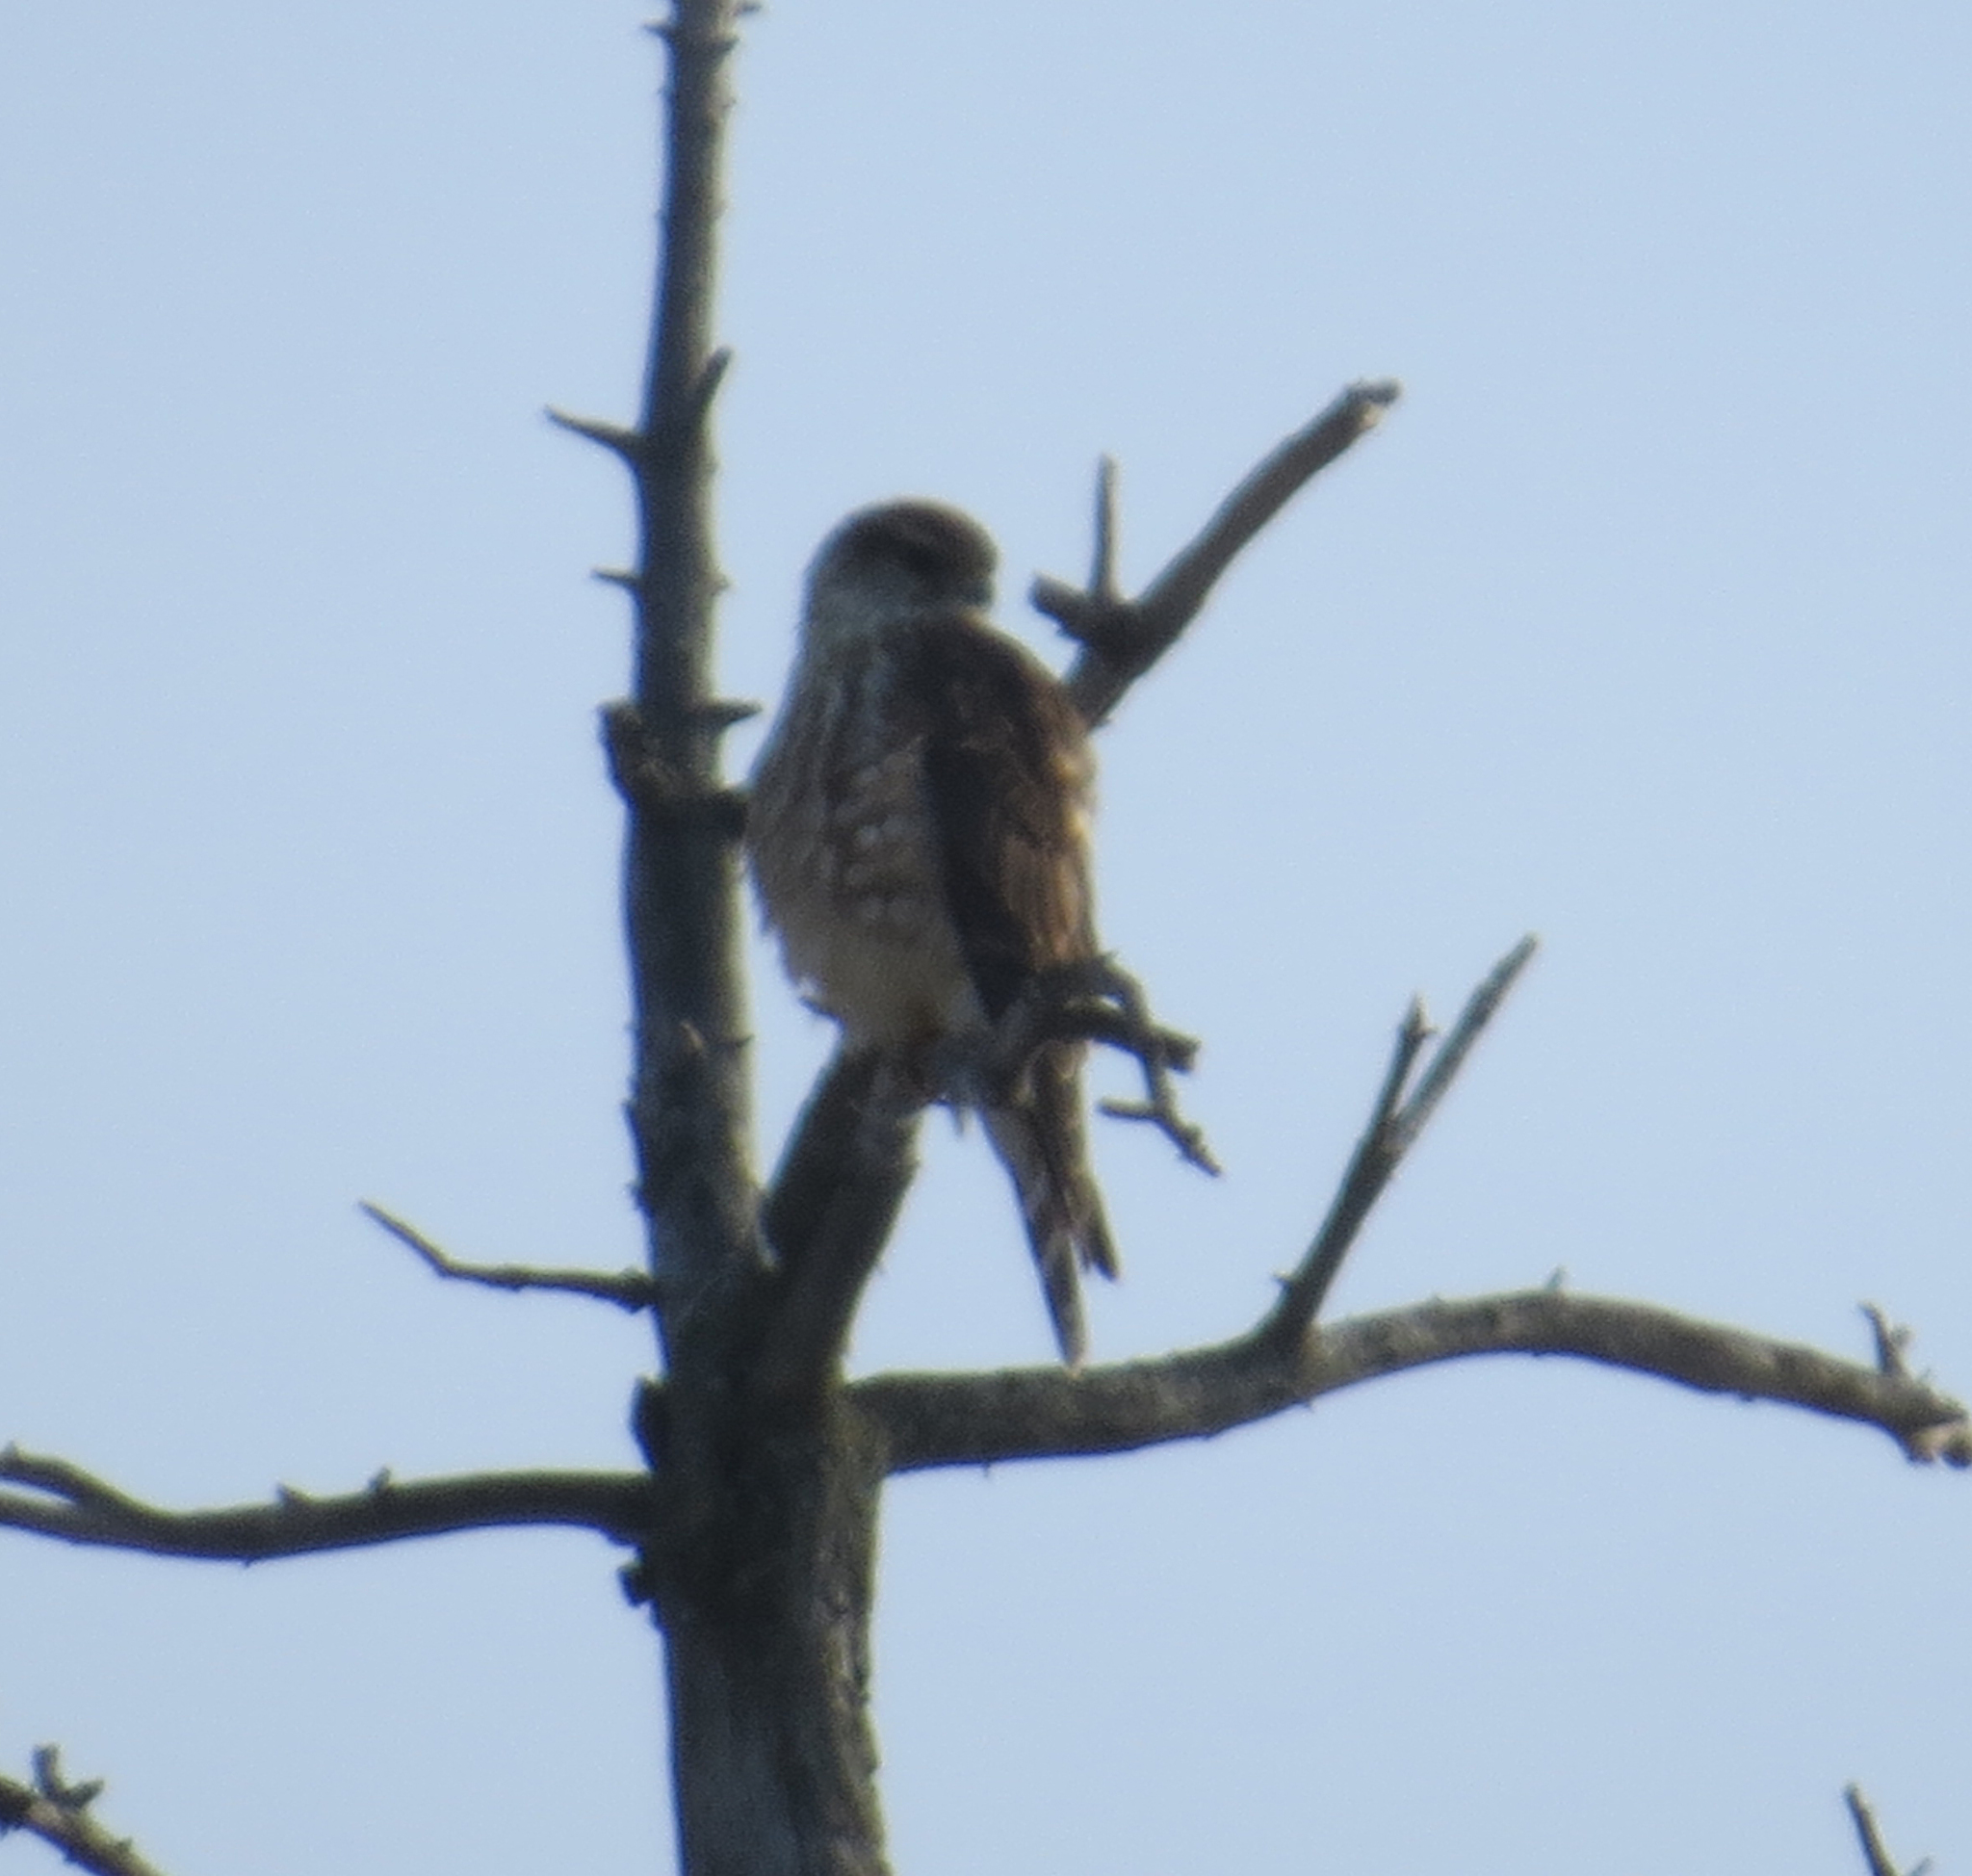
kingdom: Animalia
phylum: Chordata
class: Aves
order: Falconiformes
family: Falconidae
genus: Falco
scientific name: Falco columbarius
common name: Merlin
